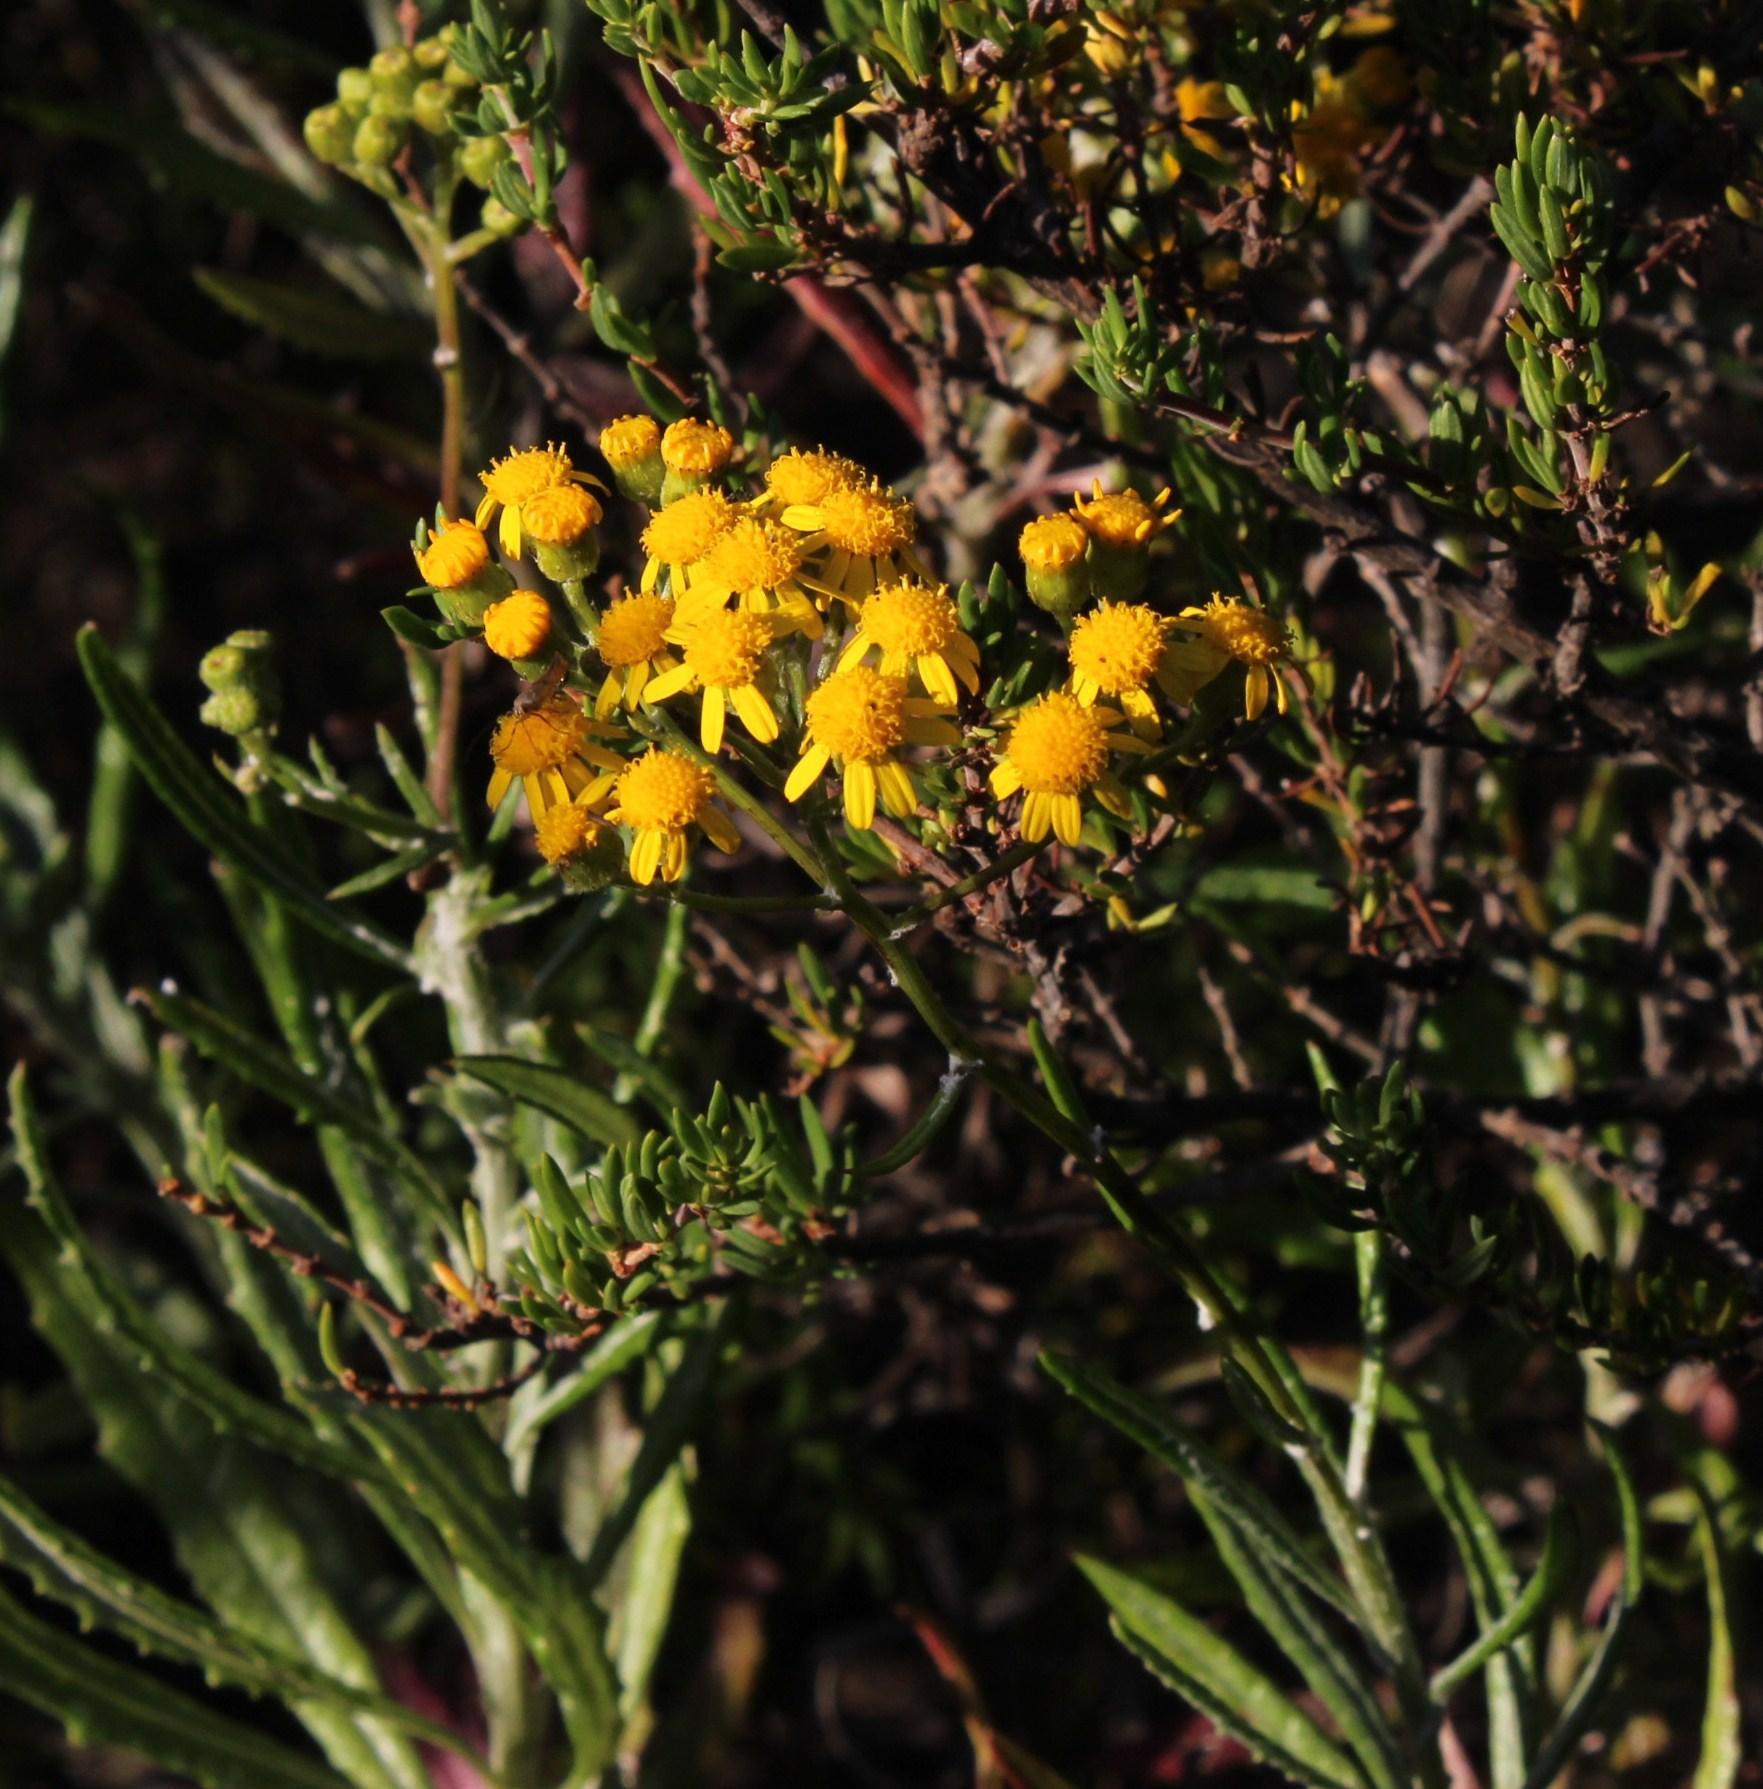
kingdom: Plantae
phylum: Tracheophyta
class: Magnoliopsida
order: Asterales
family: Asteraceae
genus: Senecio
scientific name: Senecio pterophorus
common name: Shoddy ragwort
